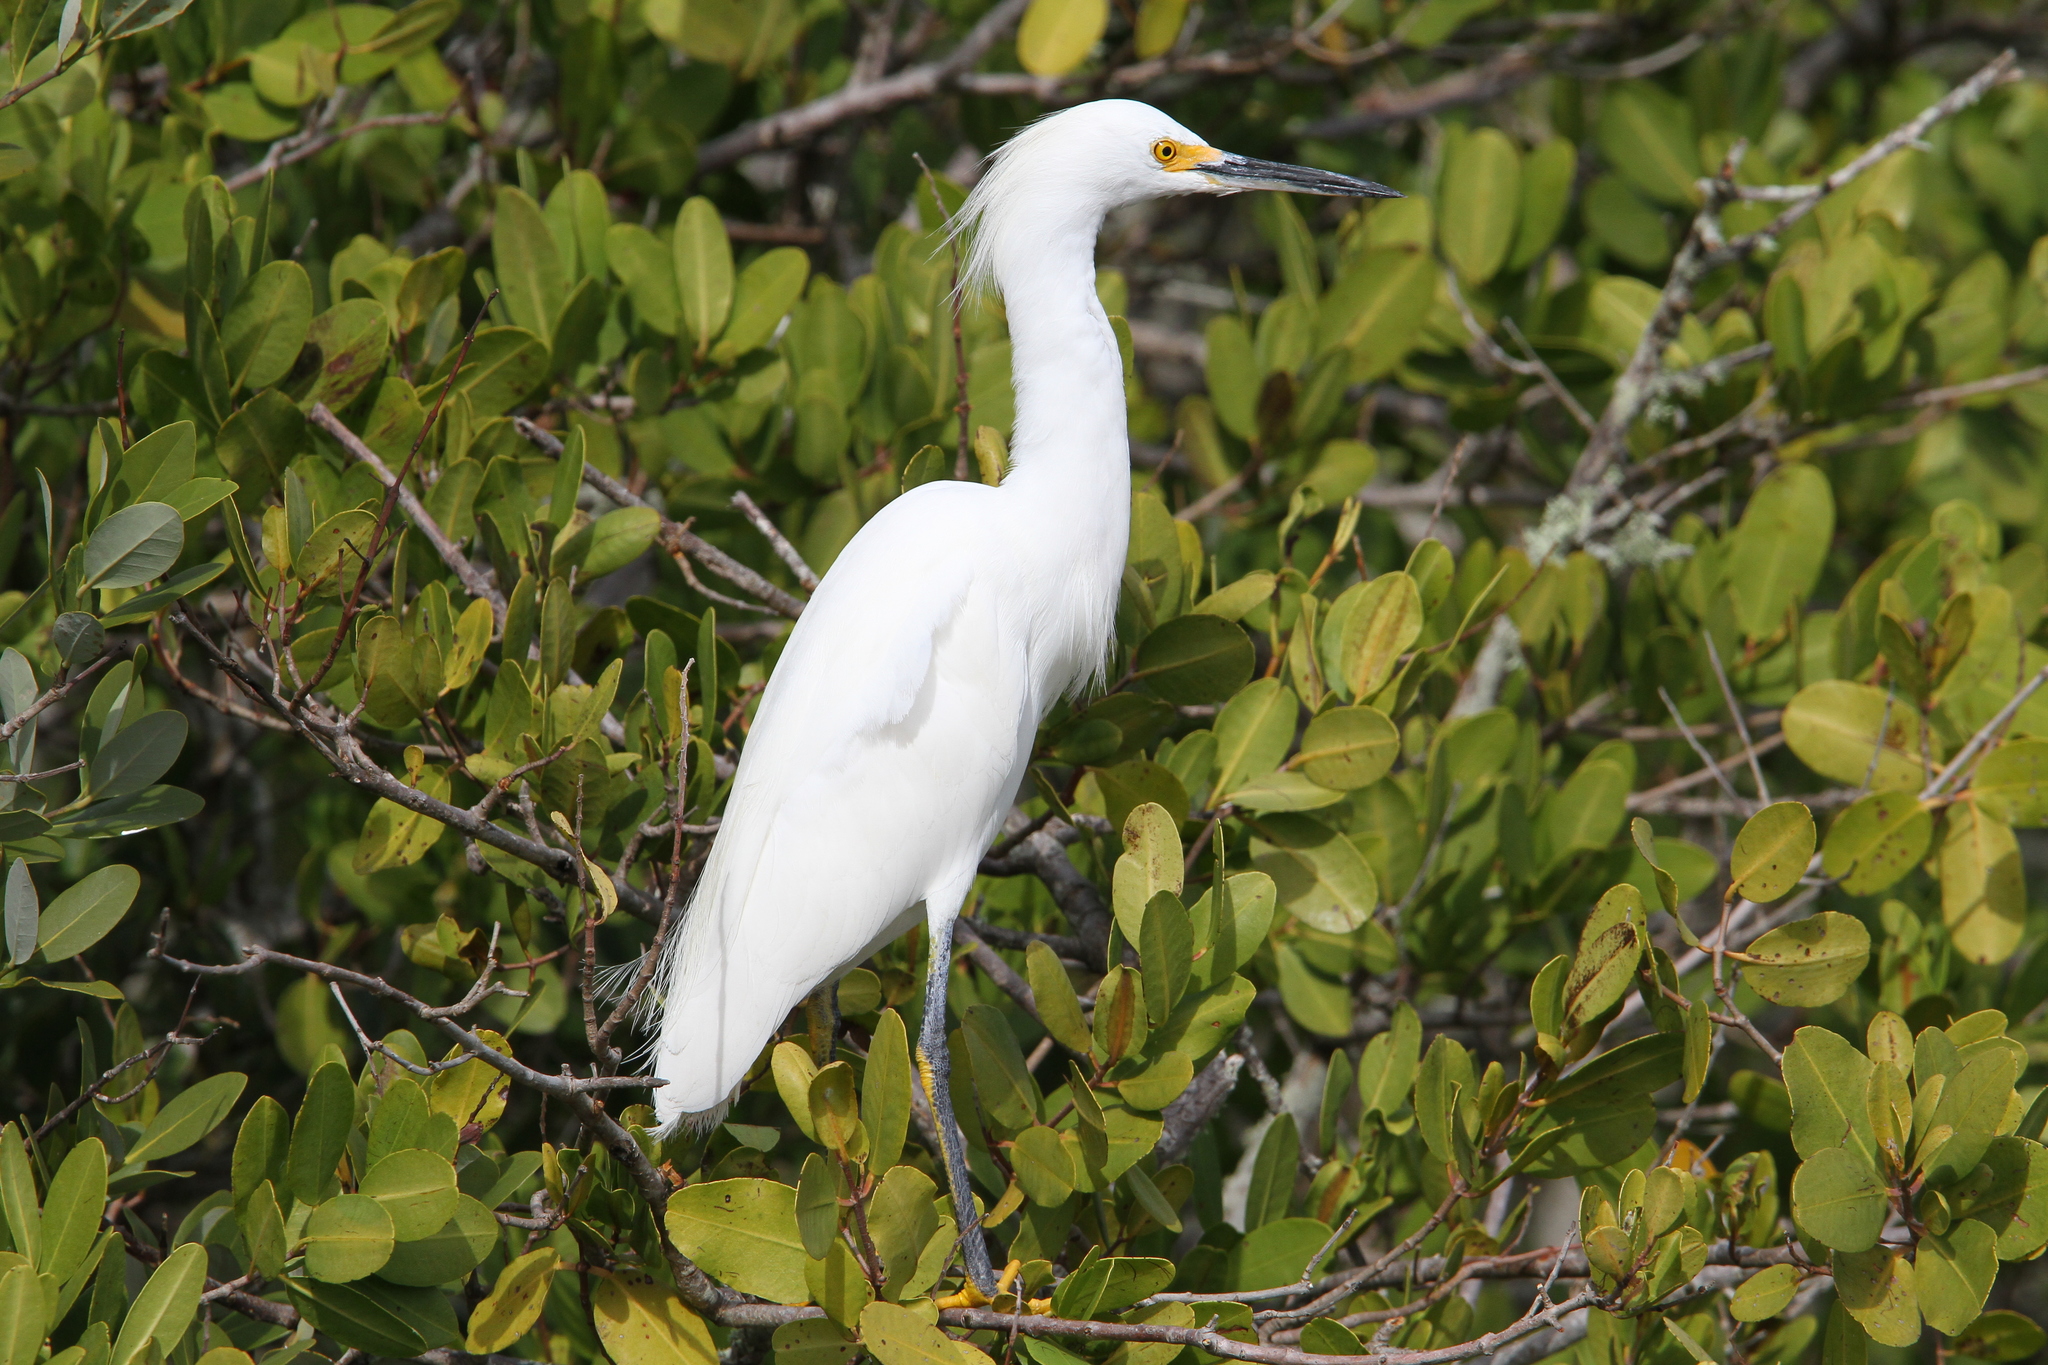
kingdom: Animalia
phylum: Chordata
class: Aves
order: Pelecaniformes
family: Ardeidae
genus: Egretta
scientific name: Egretta thula
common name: Snowy egret
